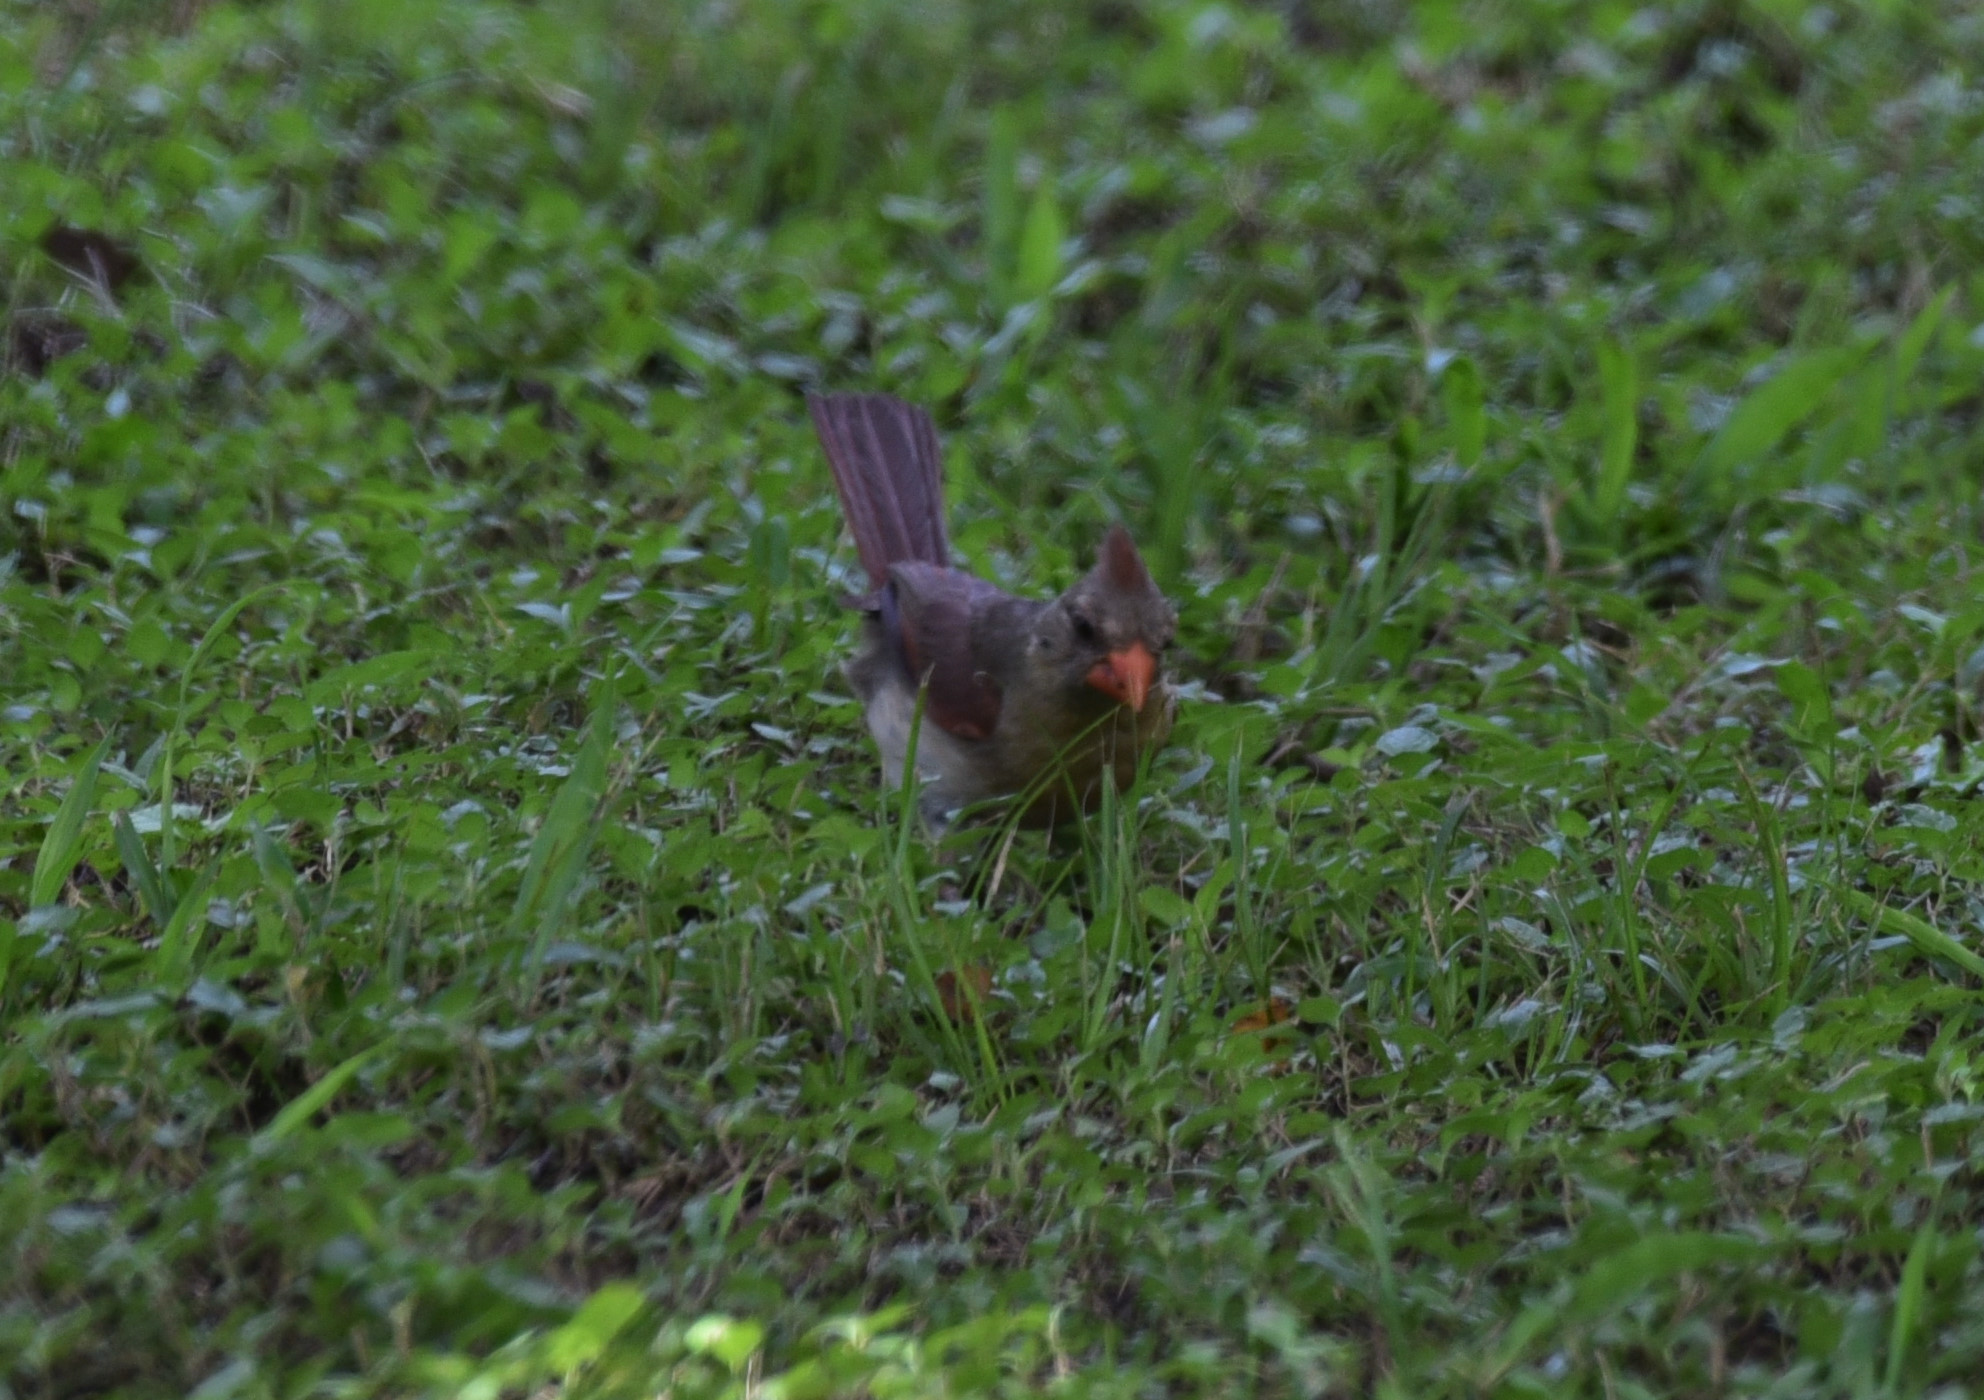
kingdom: Animalia
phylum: Chordata
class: Aves
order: Passeriformes
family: Cardinalidae
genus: Cardinalis
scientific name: Cardinalis cardinalis
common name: Northern cardinal
